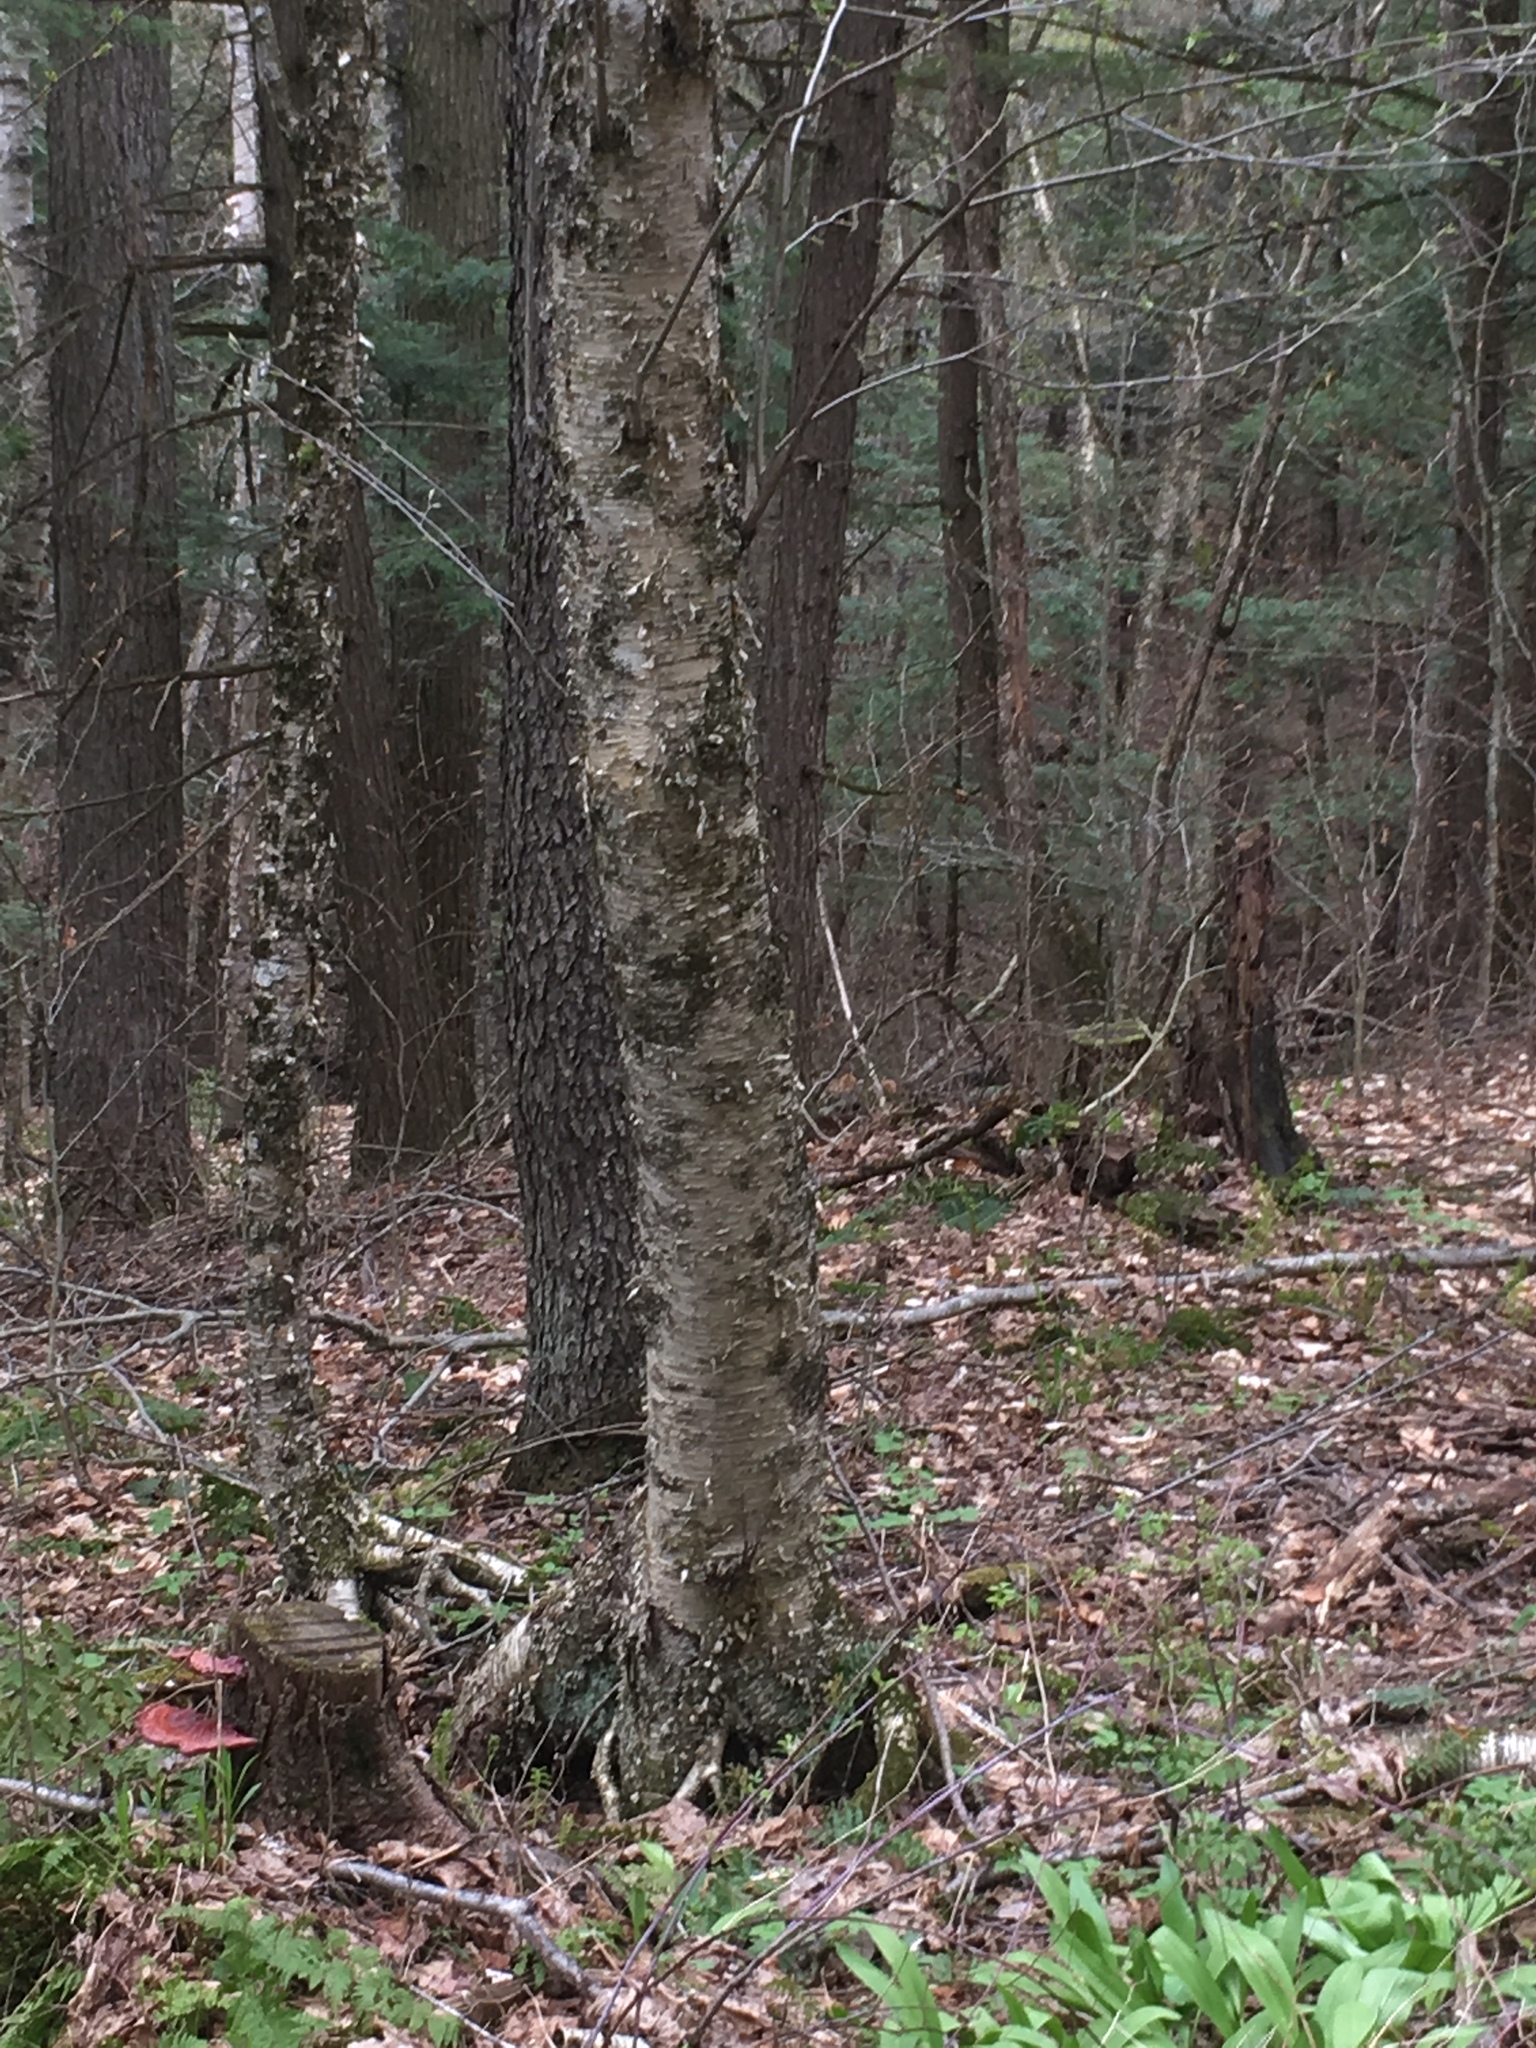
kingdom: Plantae
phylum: Tracheophyta
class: Magnoliopsida
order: Fagales
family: Betulaceae
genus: Betula
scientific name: Betula alleghaniensis
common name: Yellow birch
